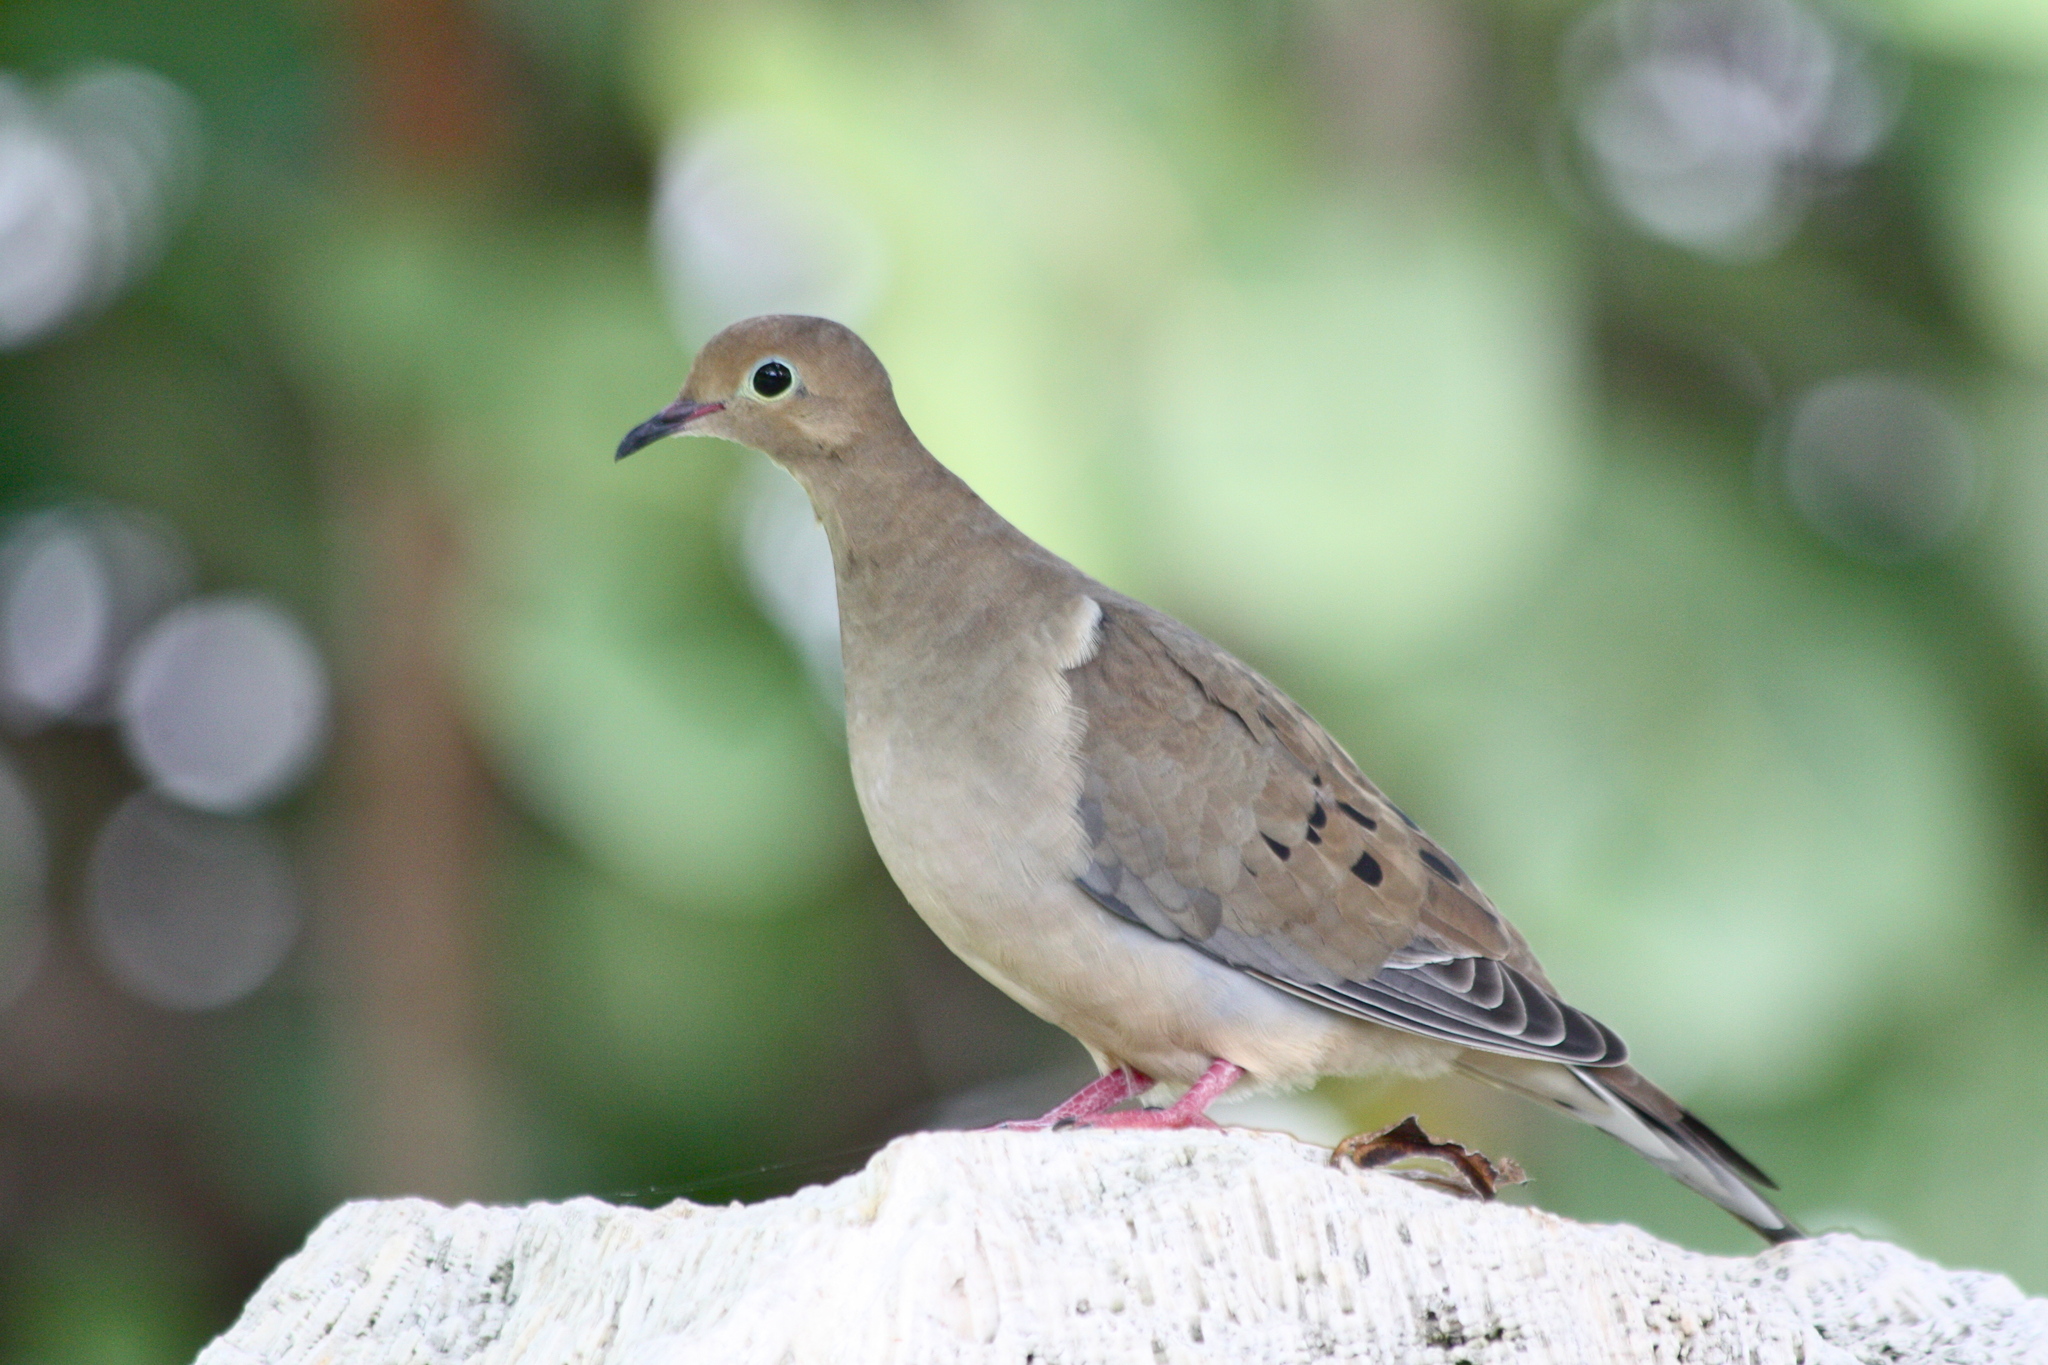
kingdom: Animalia
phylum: Chordata
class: Aves
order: Columbiformes
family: Columbidae
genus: Zenaida
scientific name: Zenaida macroura
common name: Mourning dove
